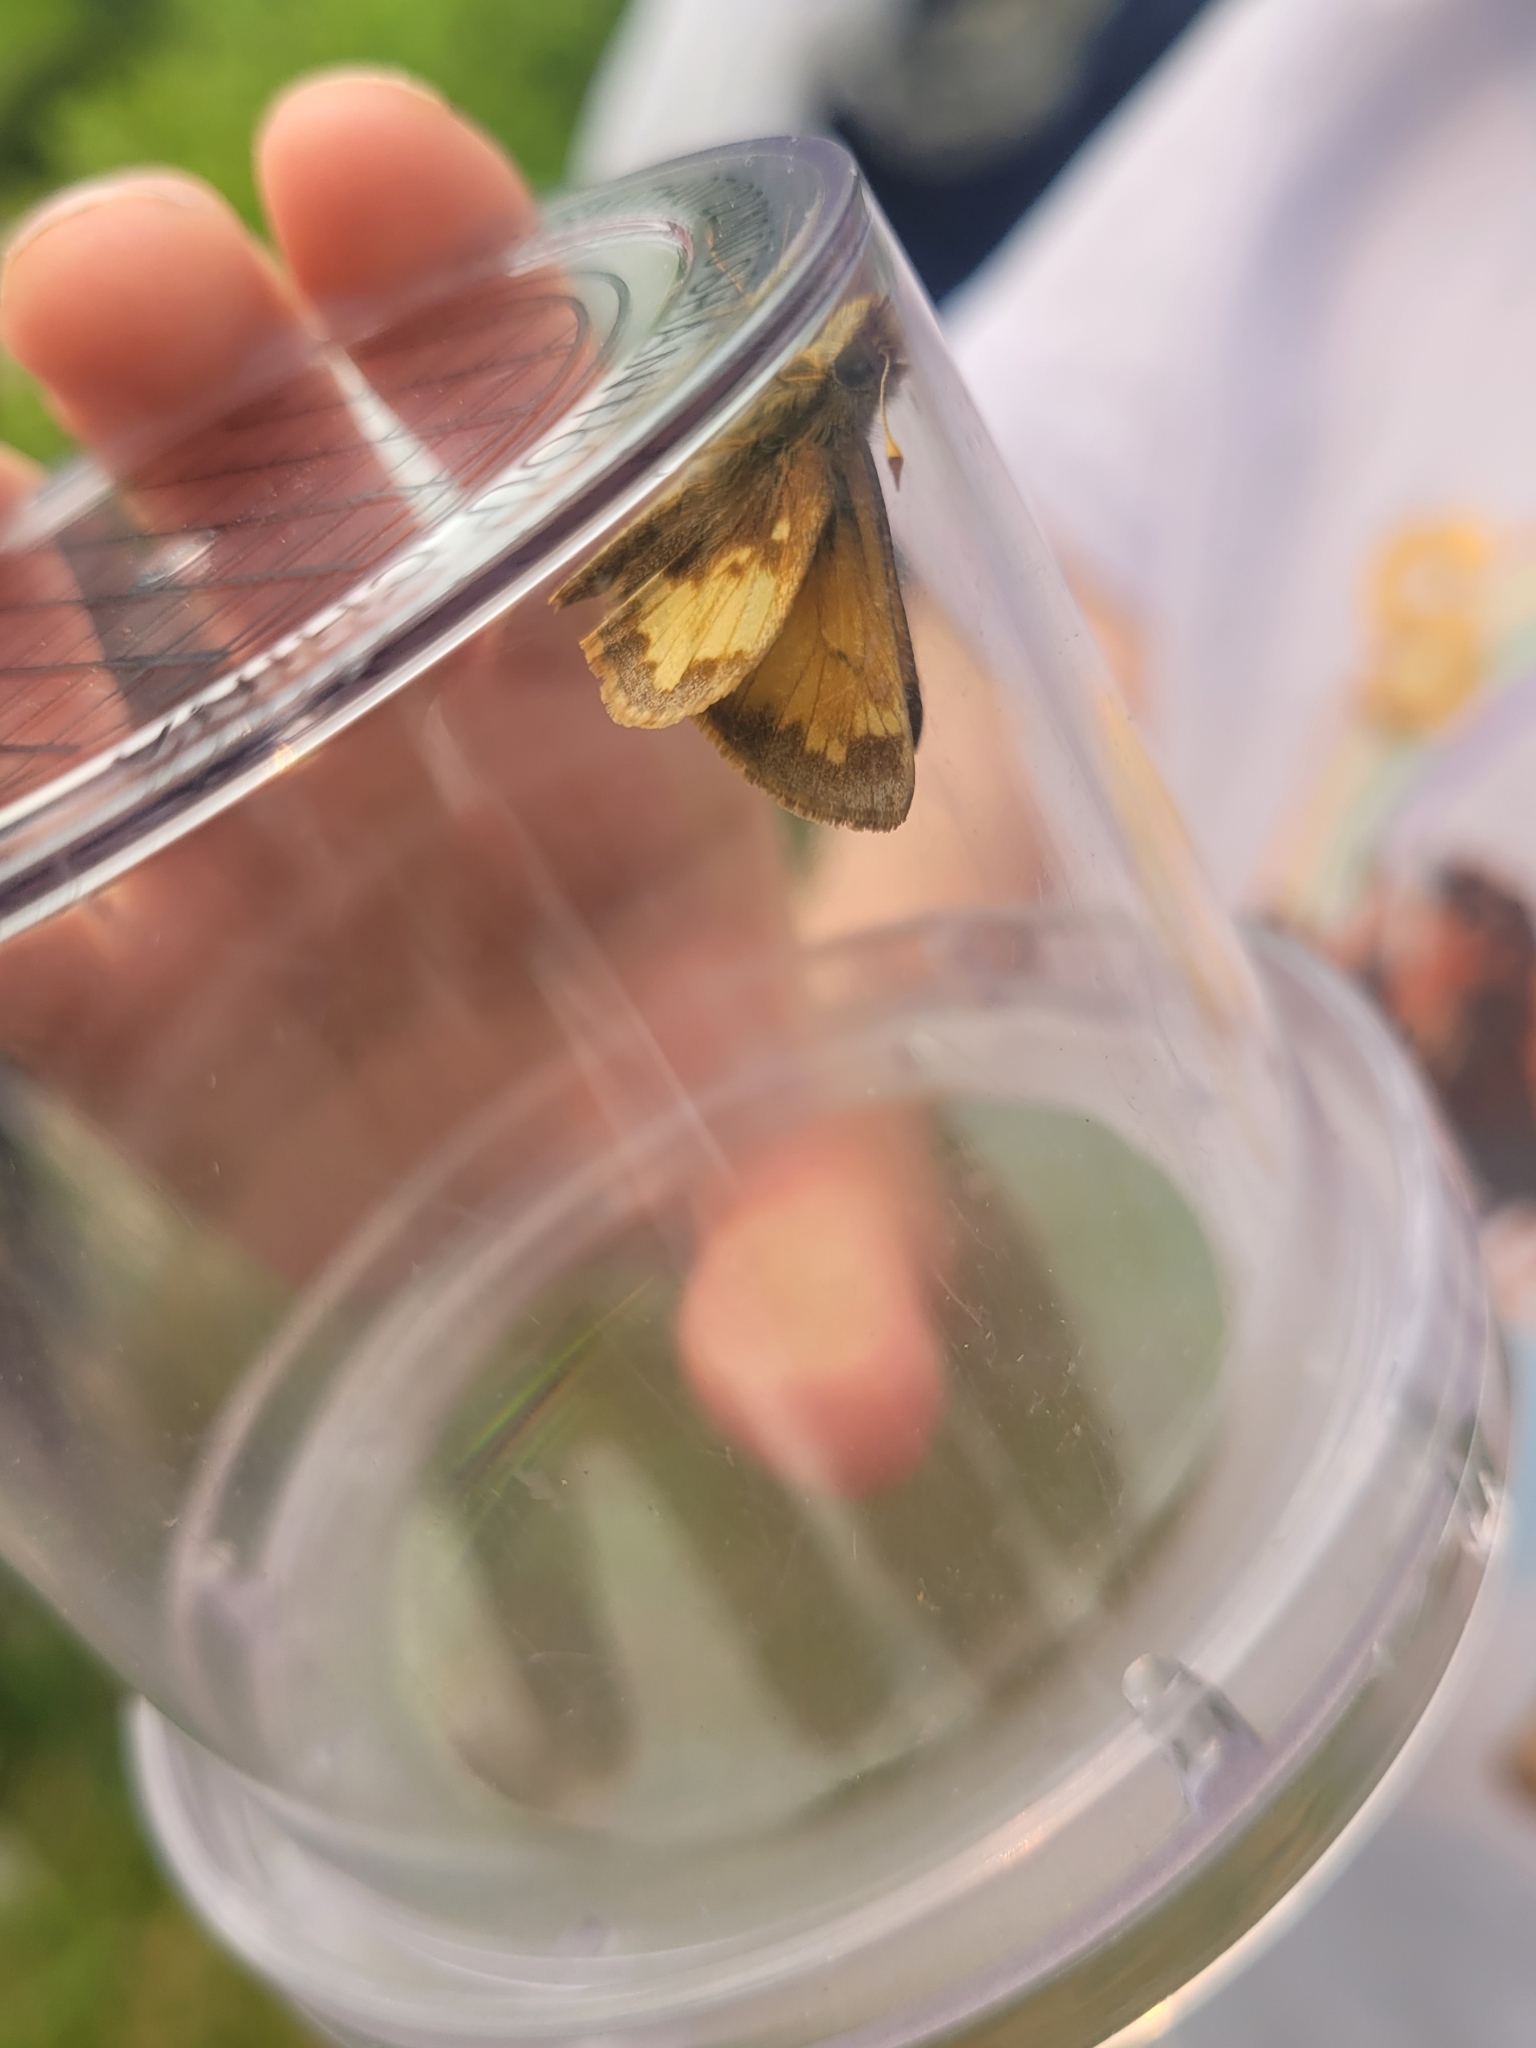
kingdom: Animalia
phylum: Arthropoda
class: Insecta
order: Lepidoptera
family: Hesperiidae
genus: Lon
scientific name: Lon hobomok
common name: Hobomok skipper
